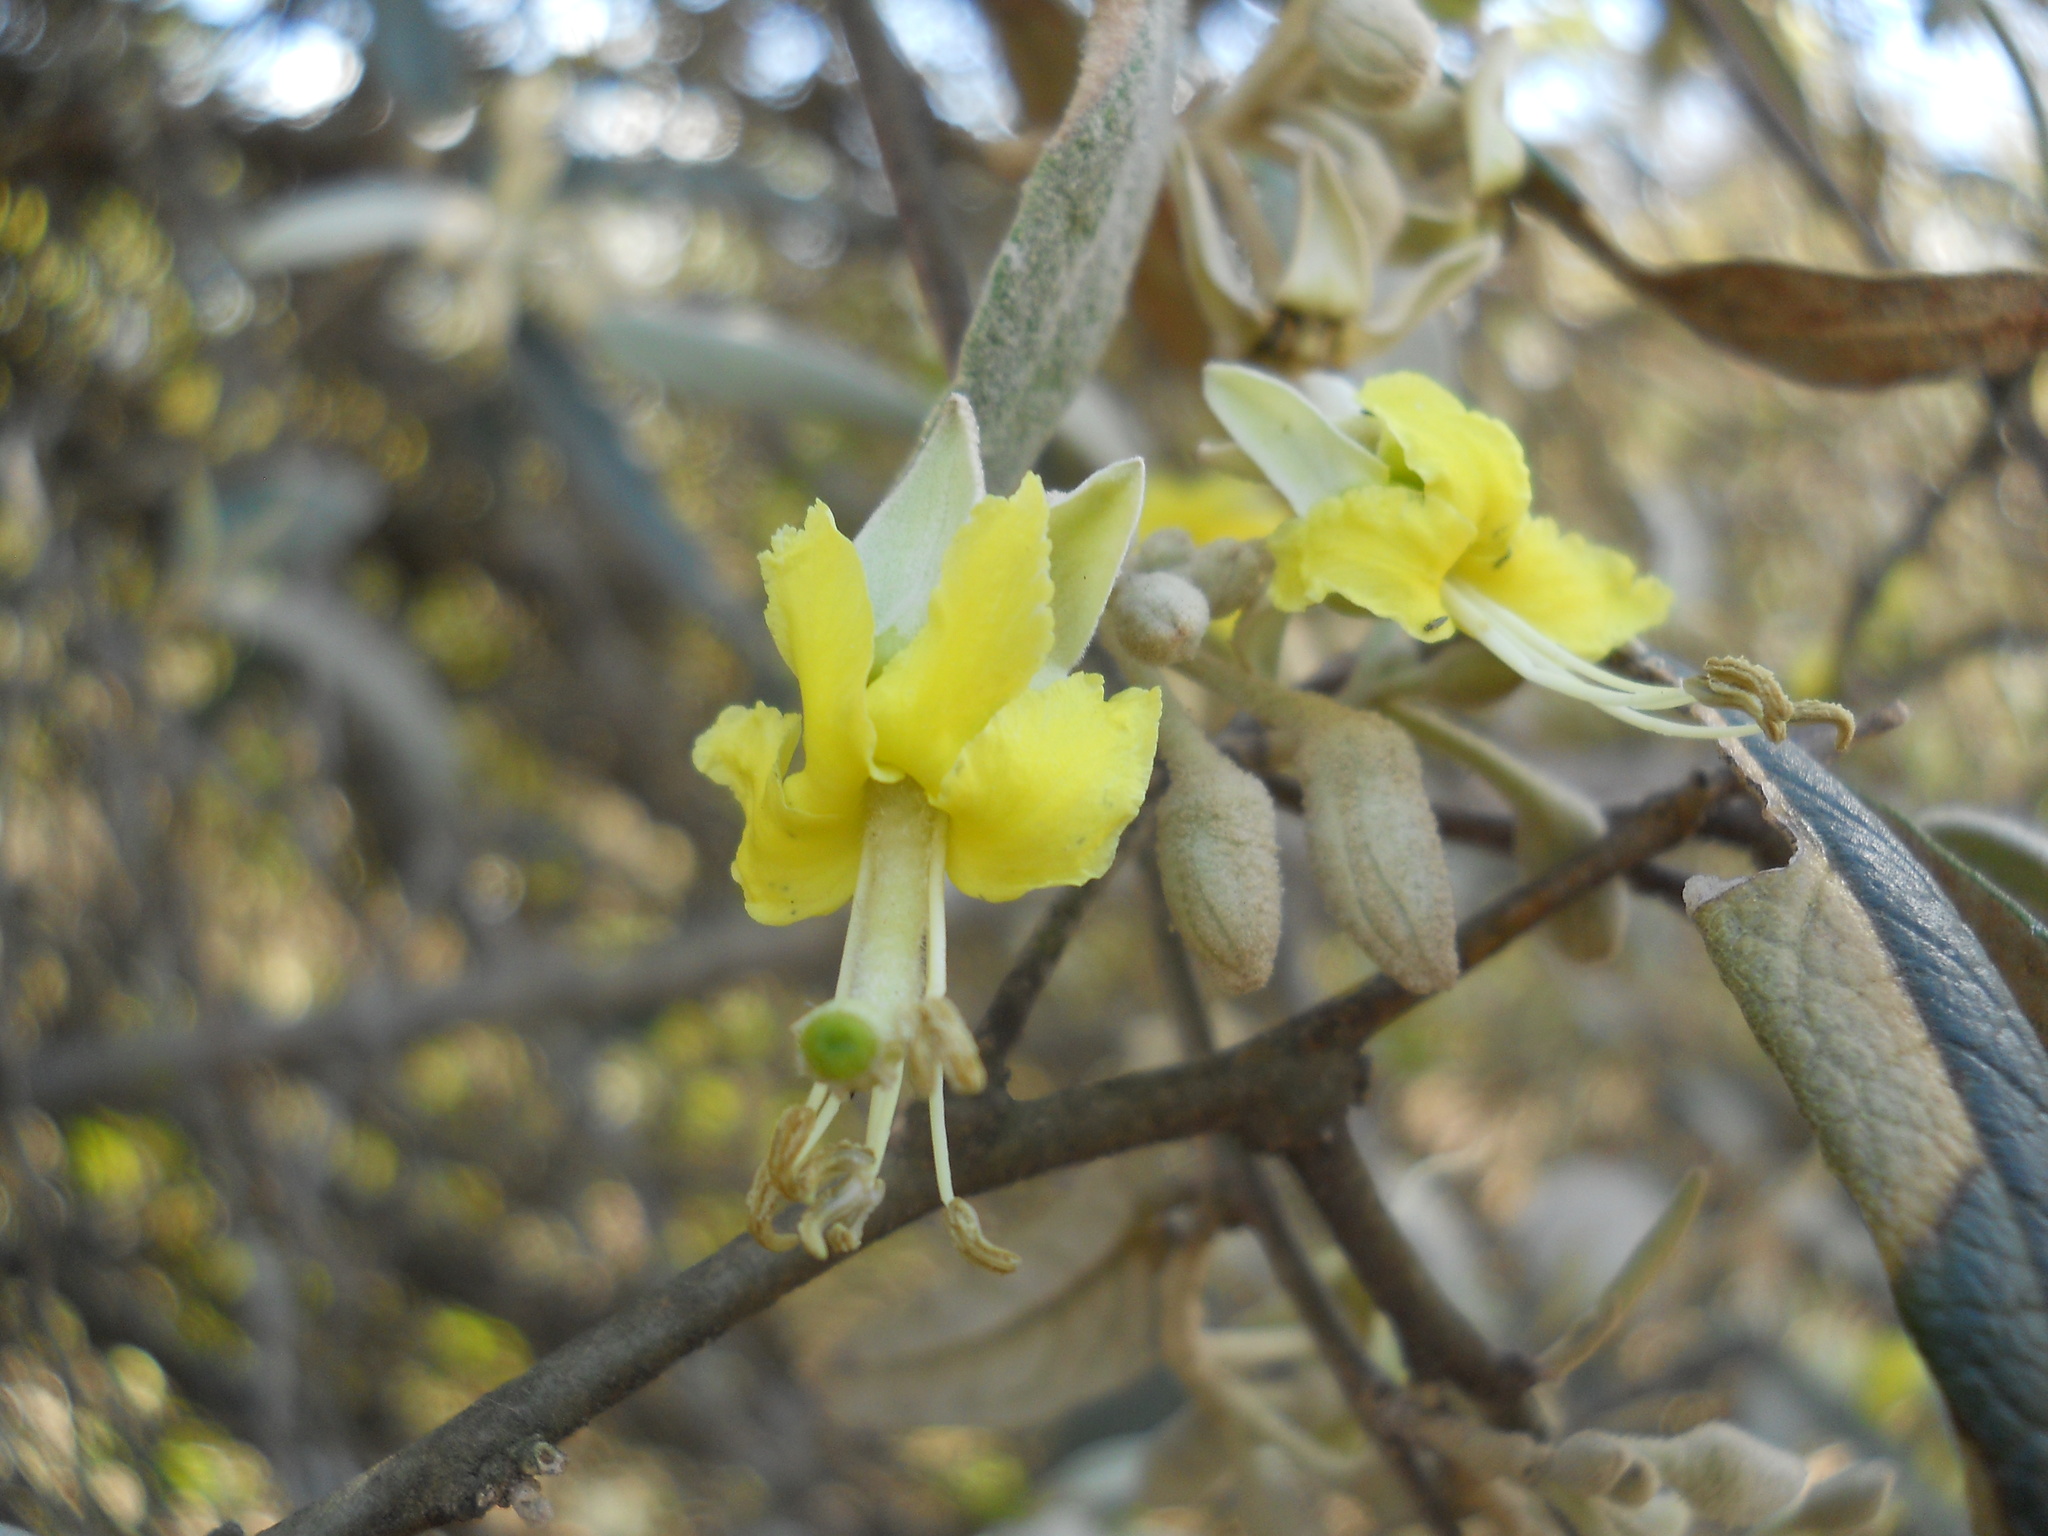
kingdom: Plantae
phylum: Tracheophyta
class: Magnoliopsida
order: Brassicales
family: Capparaceae
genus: Sarcotoxicum
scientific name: Sarcotoxicum salicifolium
